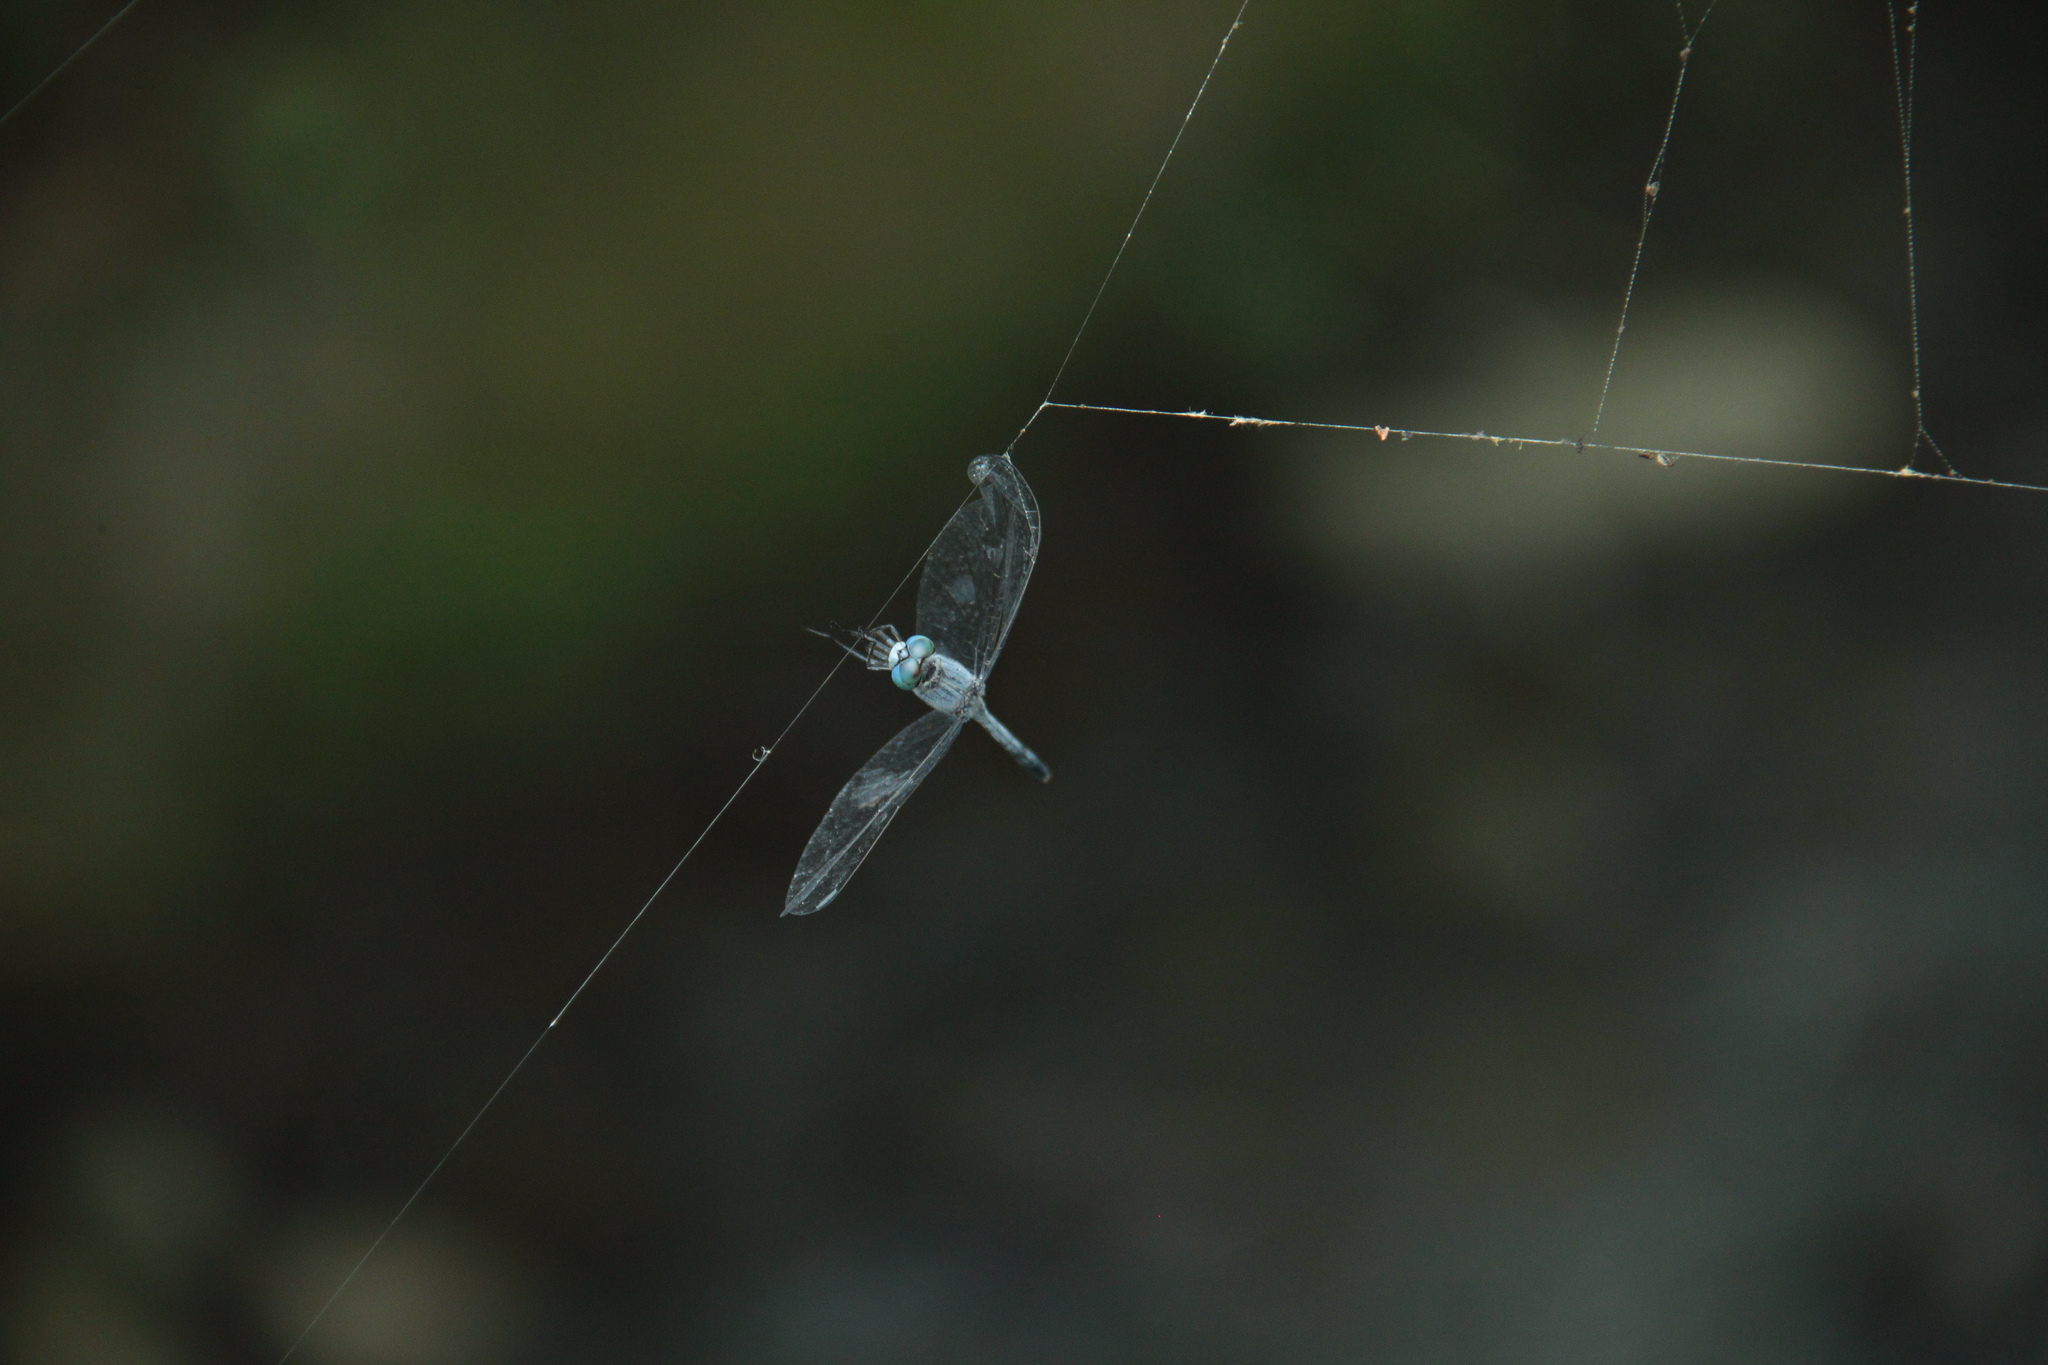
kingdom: Animalia
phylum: Arthropoda
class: Insecta
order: Odonata
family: Libellulidae
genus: Diplacodes
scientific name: Diplacodes trivialis
